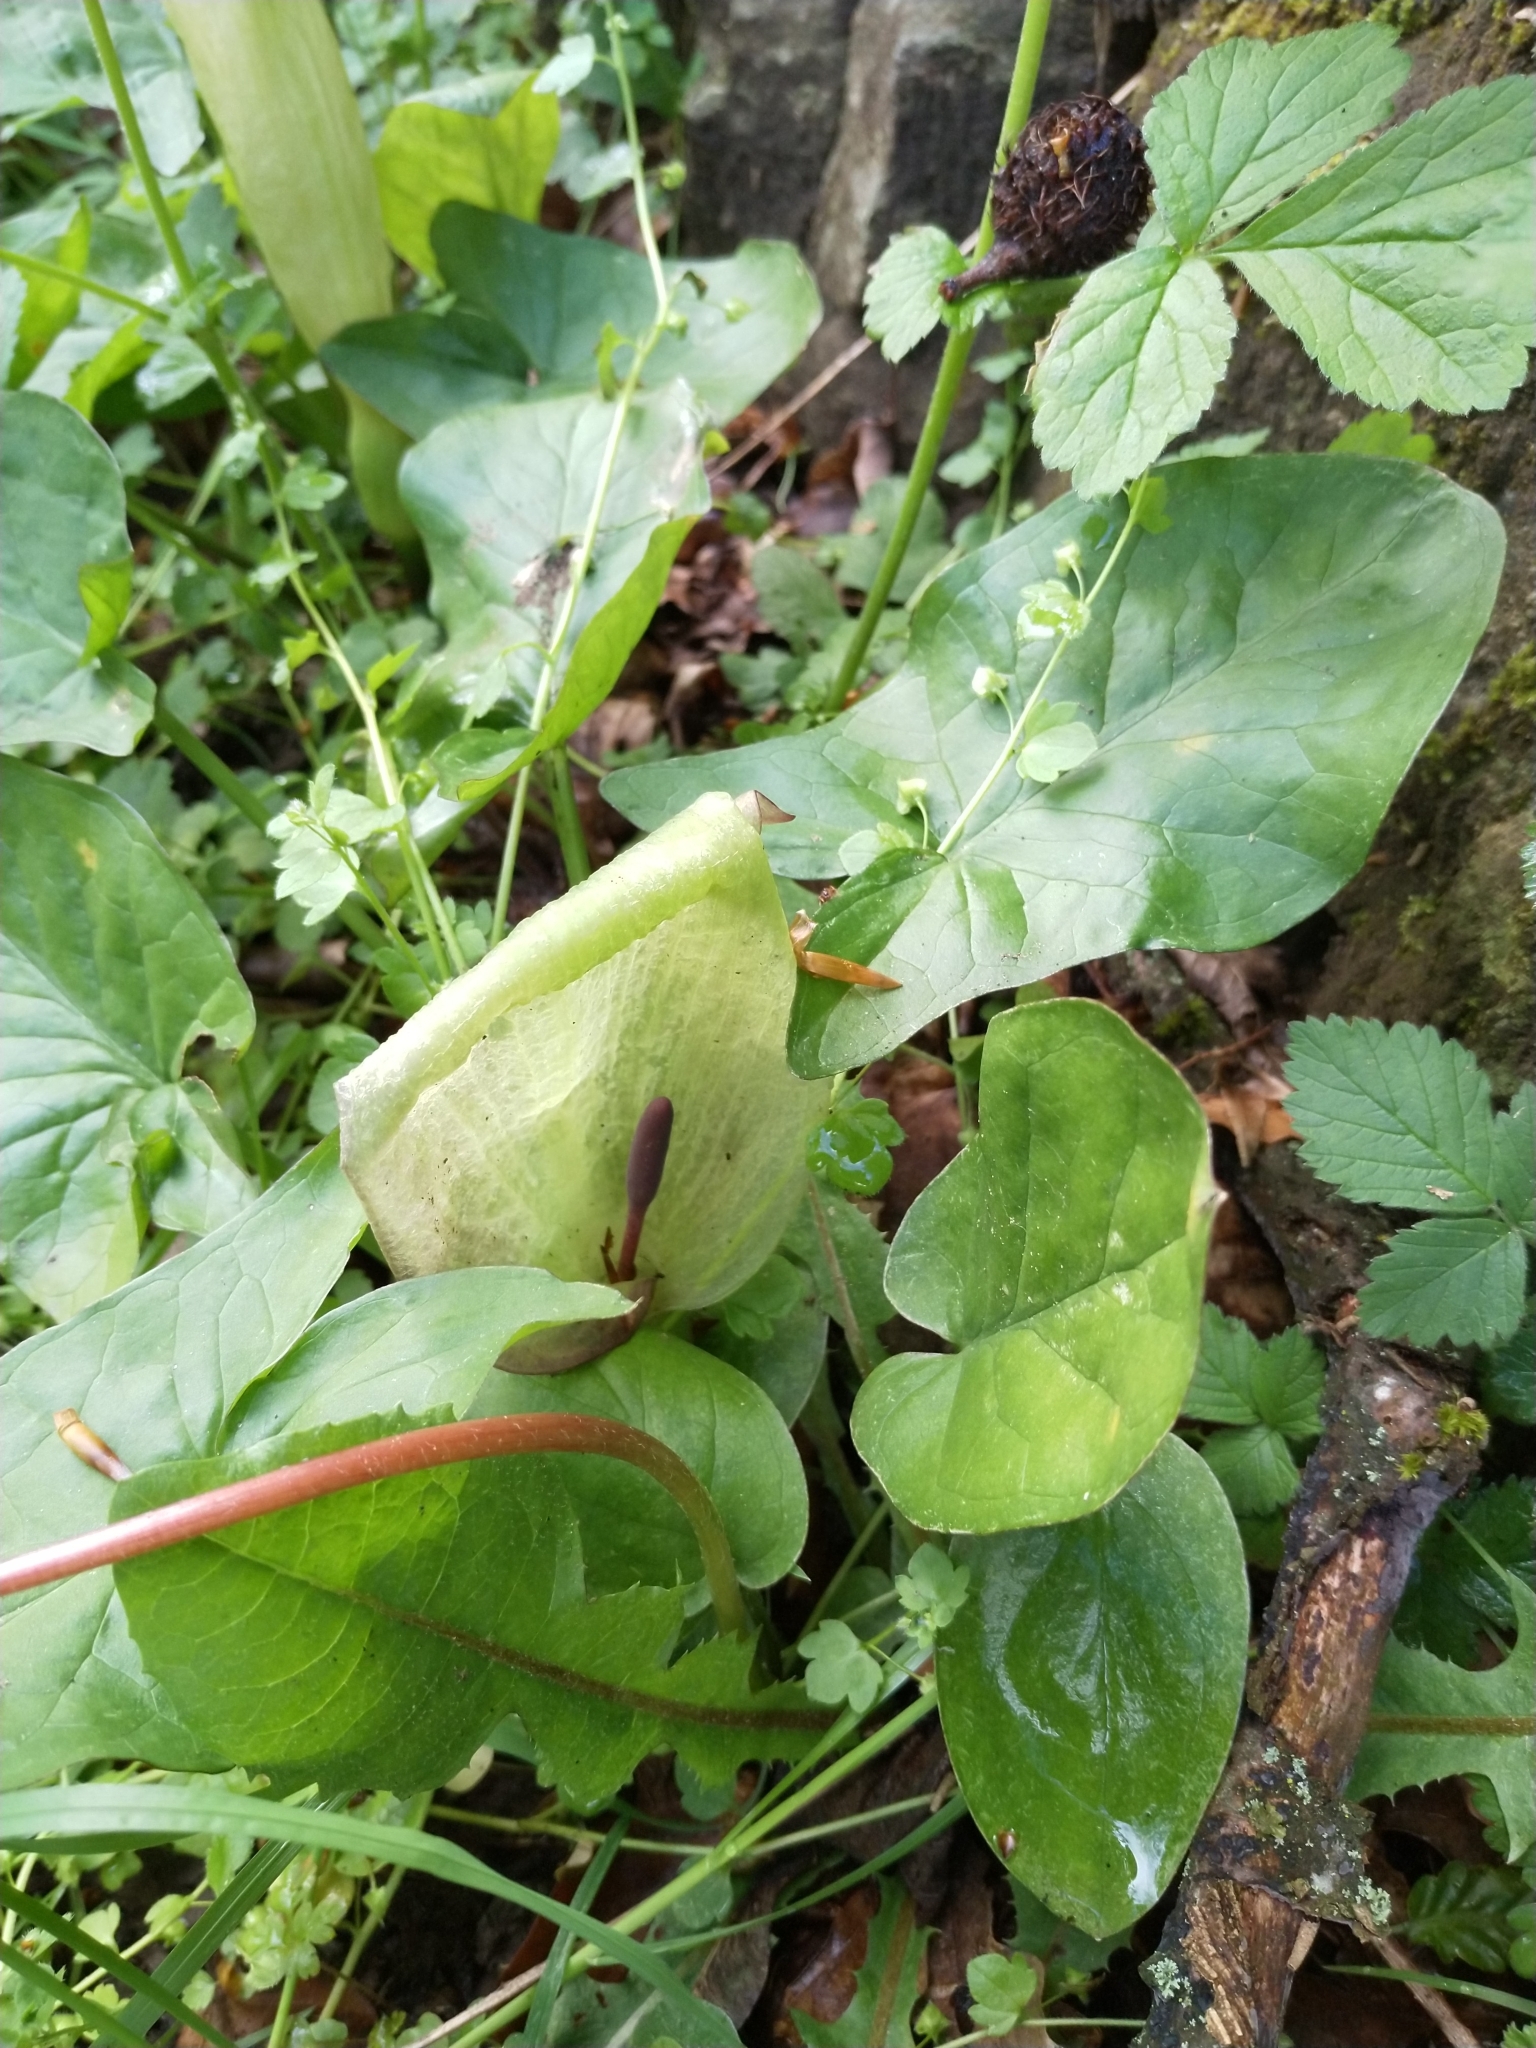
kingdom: Plantae
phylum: Tracheophyta
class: Liliopsida
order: Alismatales
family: Araceae
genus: Arum
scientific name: Arum maculatum
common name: Lords-and-ladies
